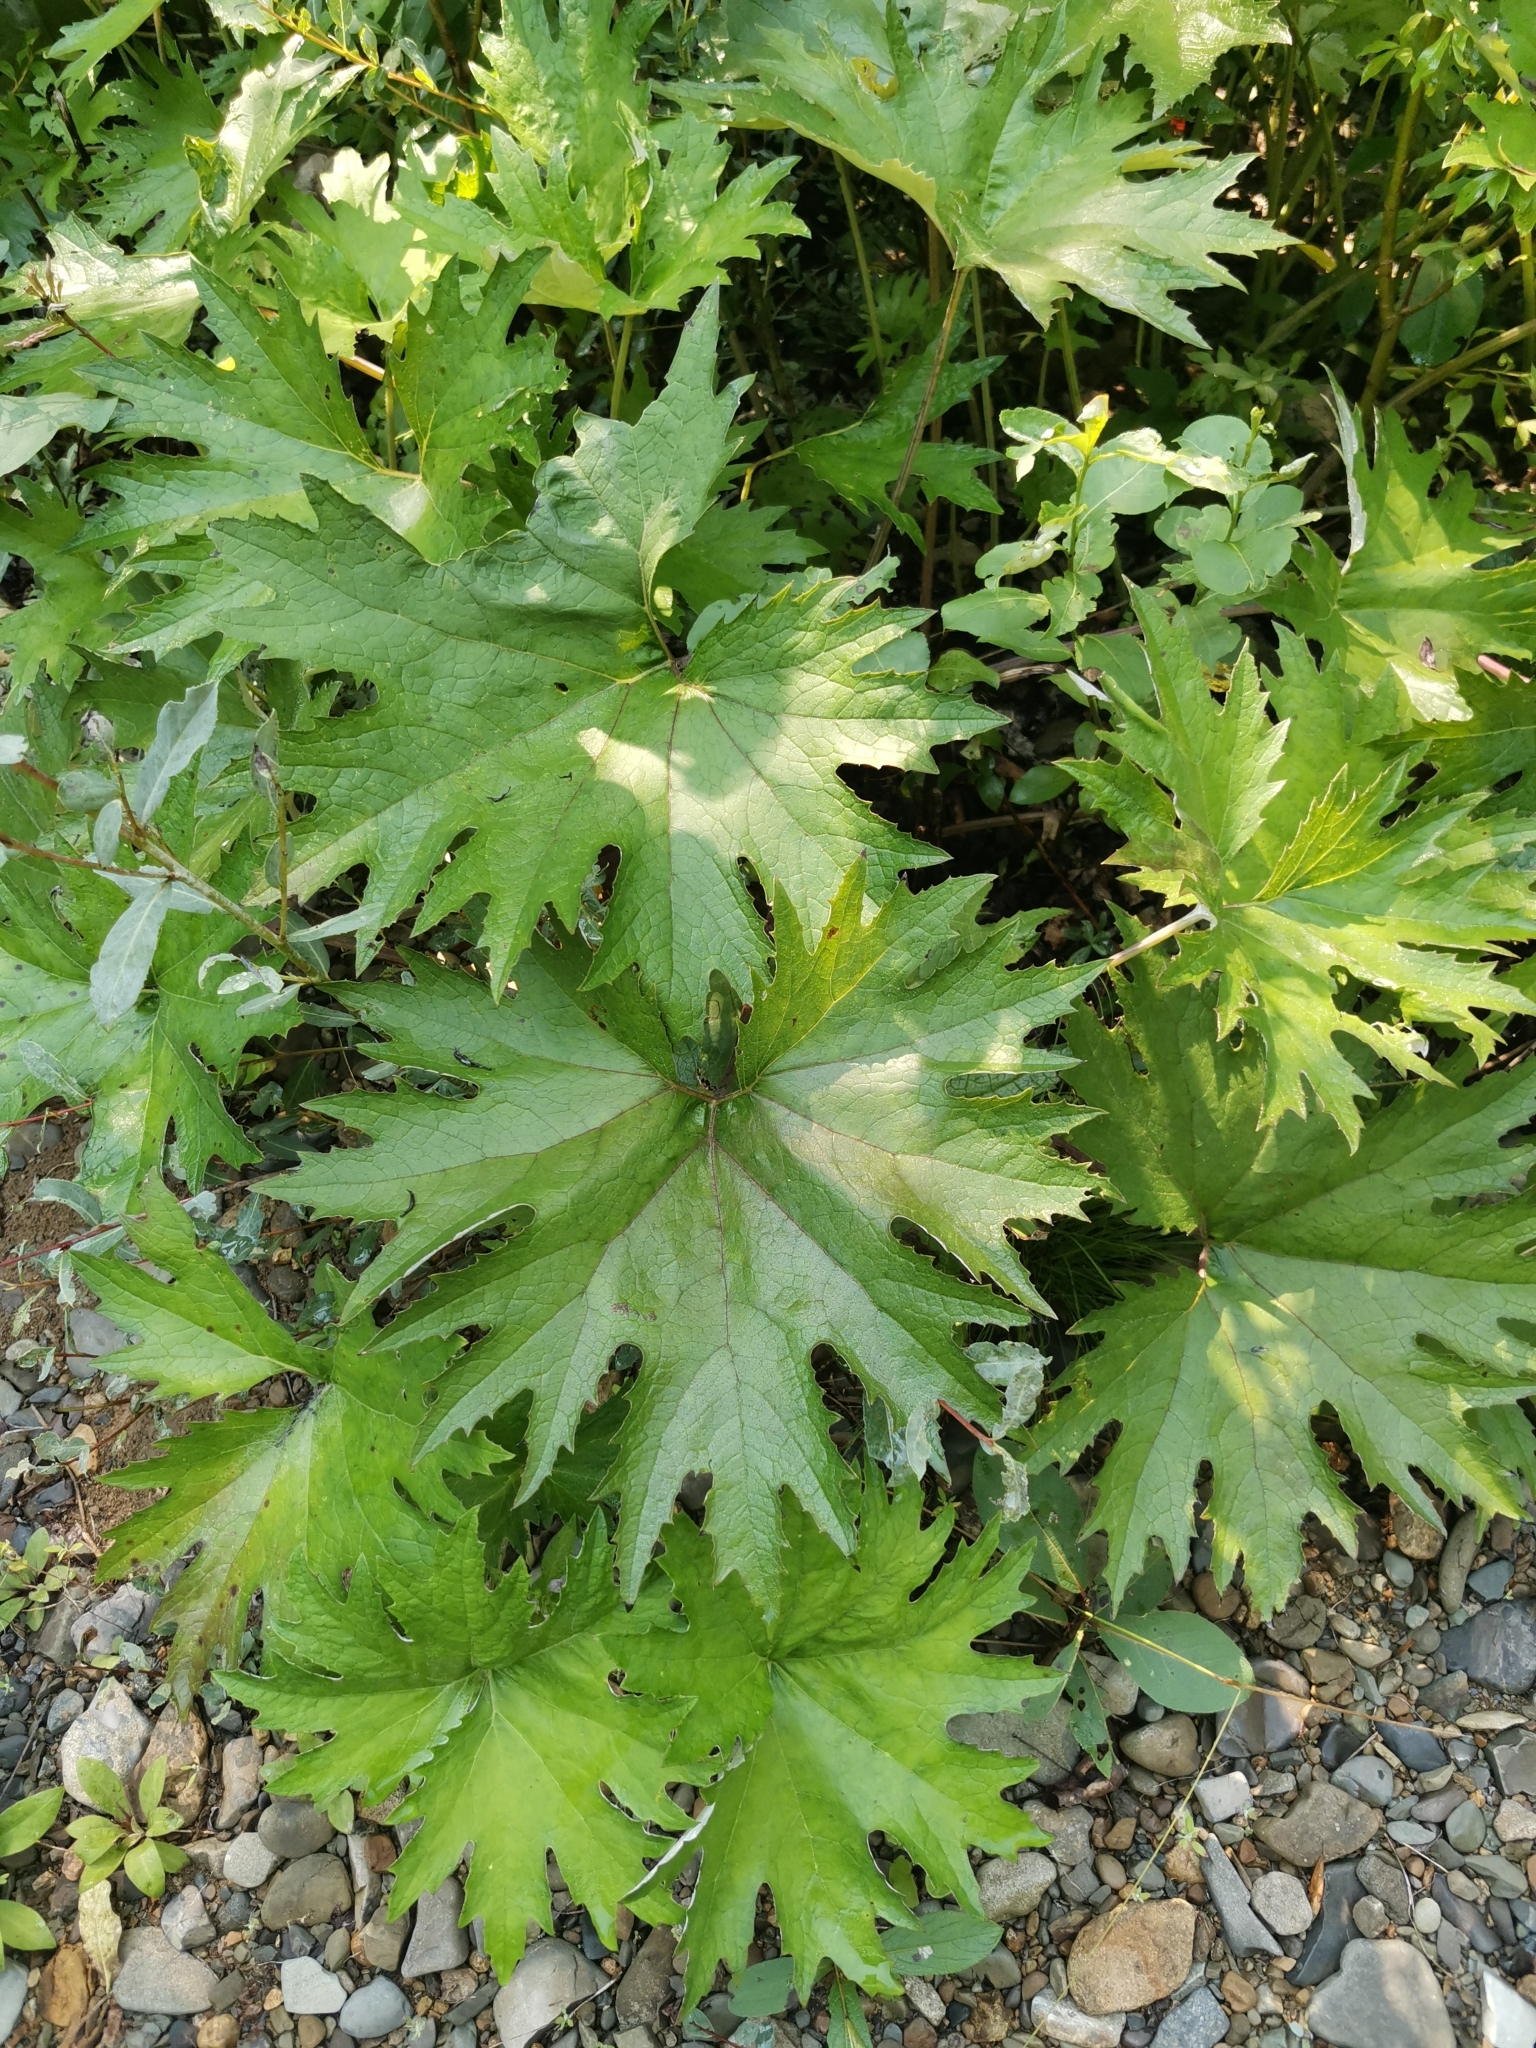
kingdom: Plantae
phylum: Tracheophyta
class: Magnoliopsida
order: Asterales
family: Asteraceae
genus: Petasites
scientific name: Petasites tatewakianus
